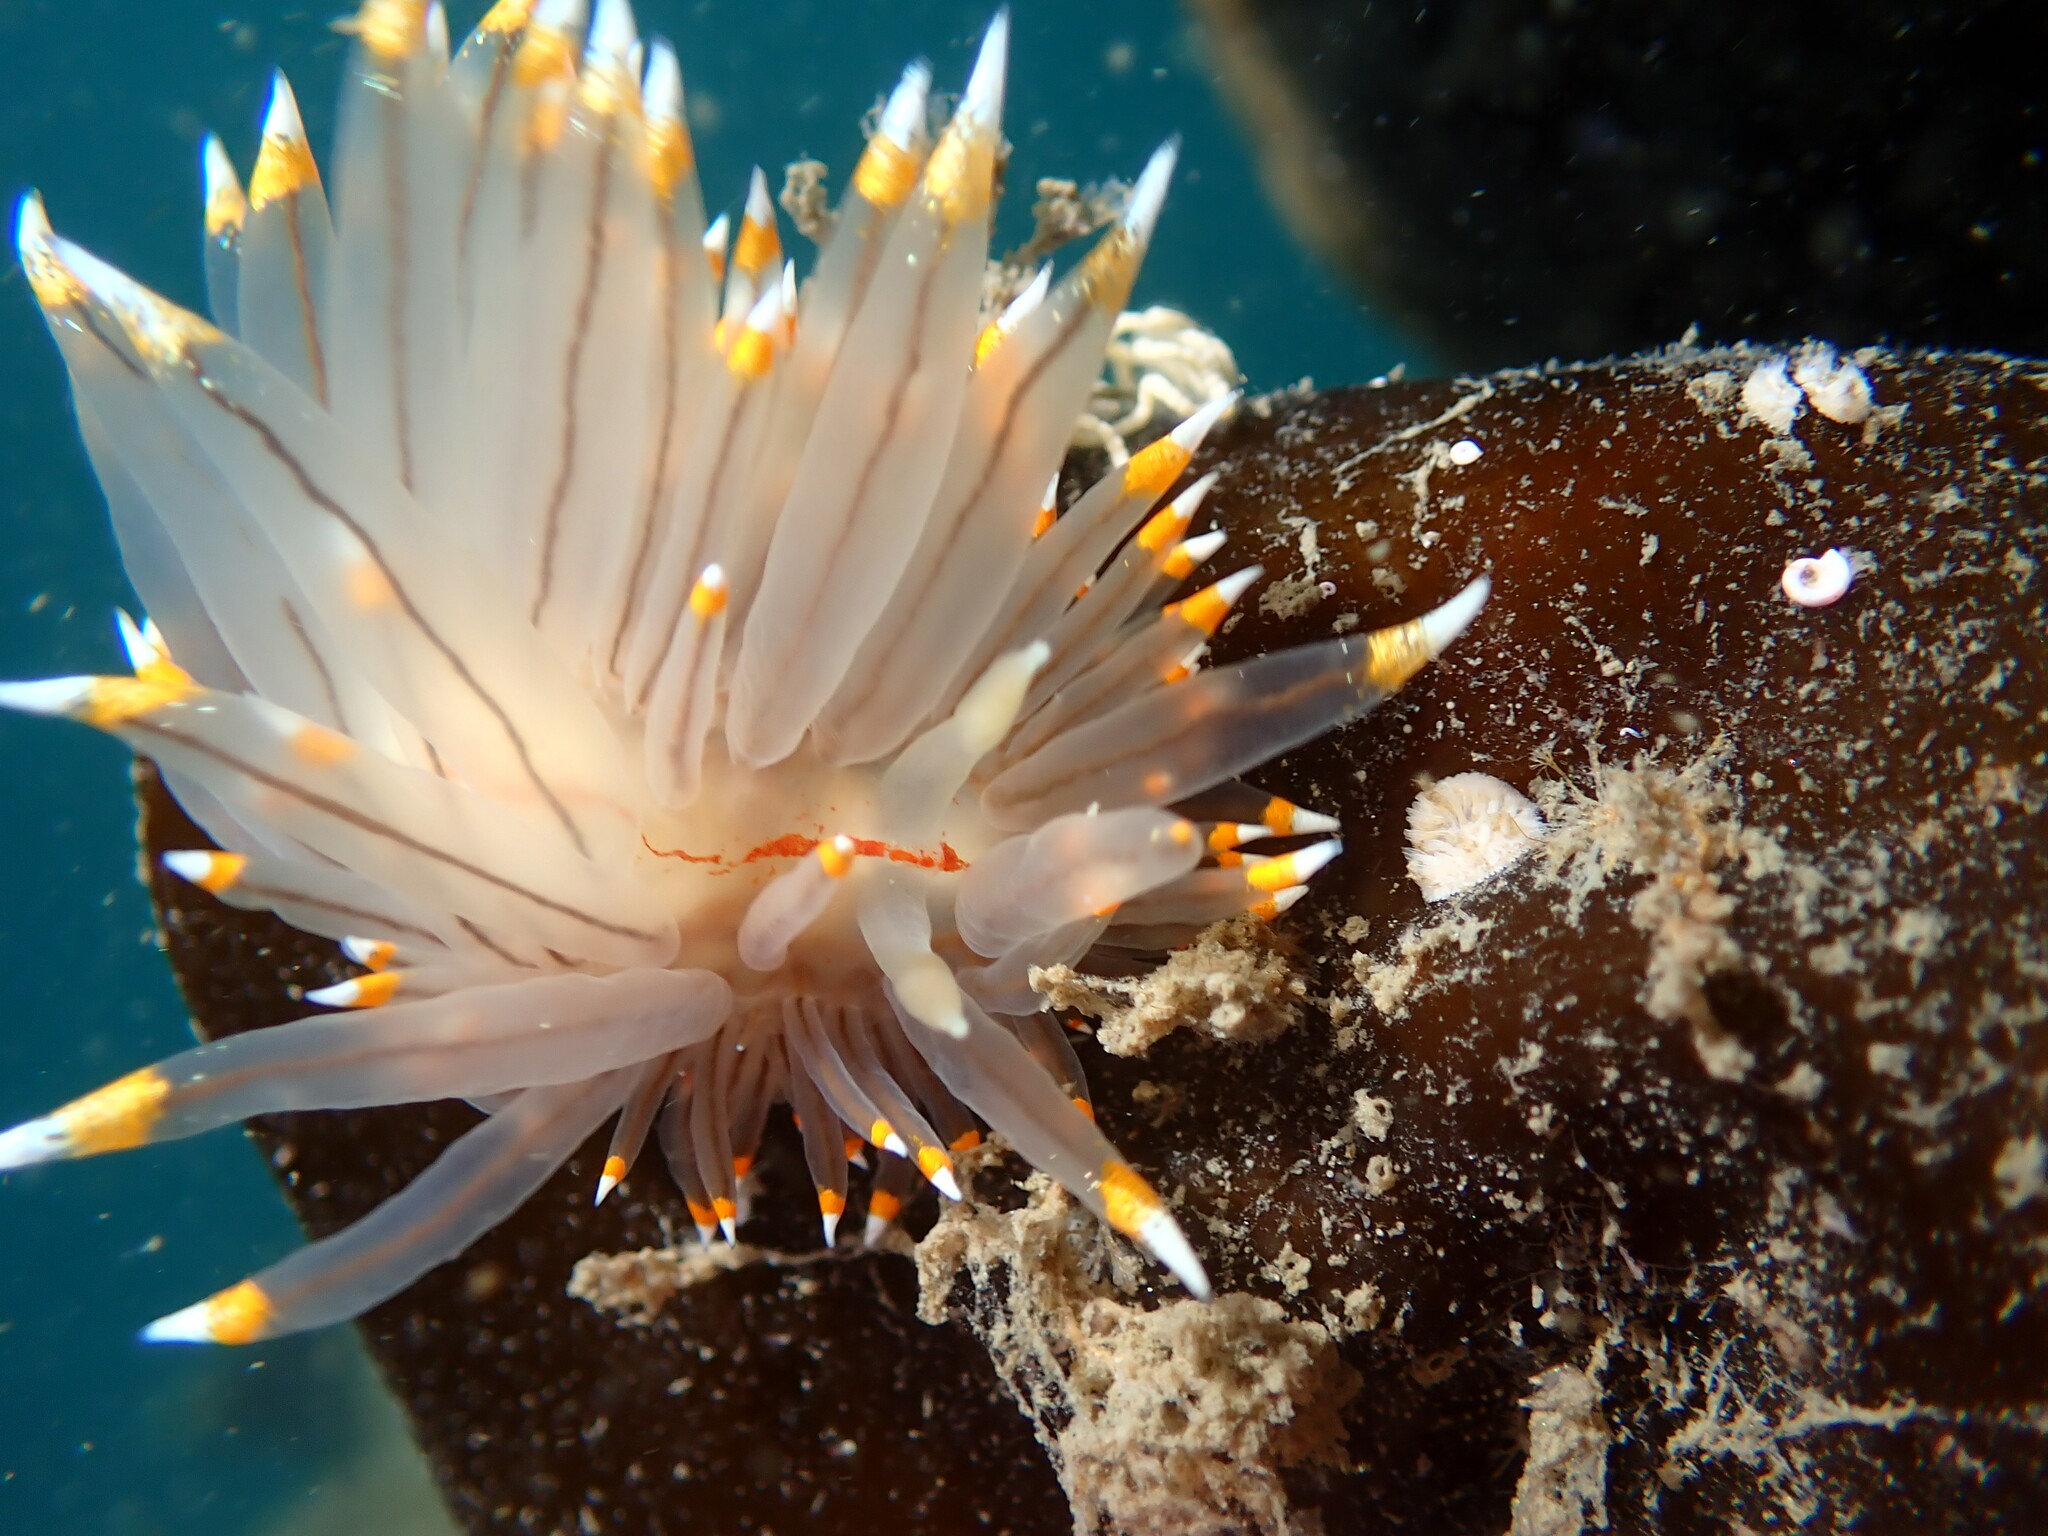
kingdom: Animalia
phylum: Mollusca
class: Gastropoda
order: Nudibranchia
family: Janolidae
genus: Antiopella
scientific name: Antiopella fusca
